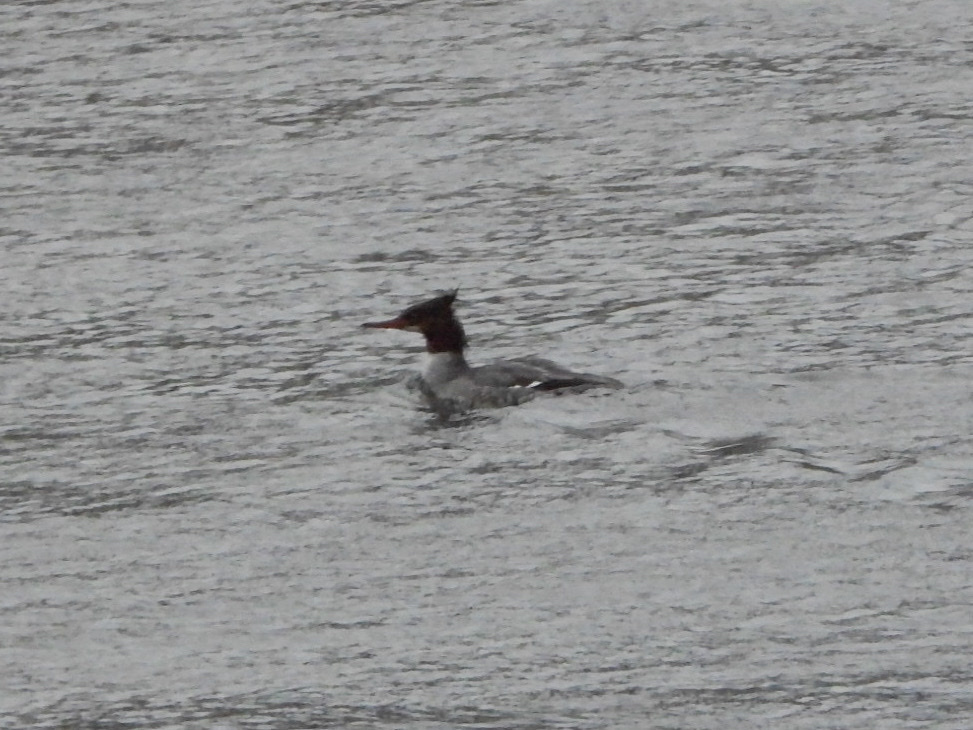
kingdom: Animalia
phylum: Chordata
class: Aves
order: Anseriformes
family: Anatidae
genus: Mergus
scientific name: Mergus merganser
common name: Common merganser
